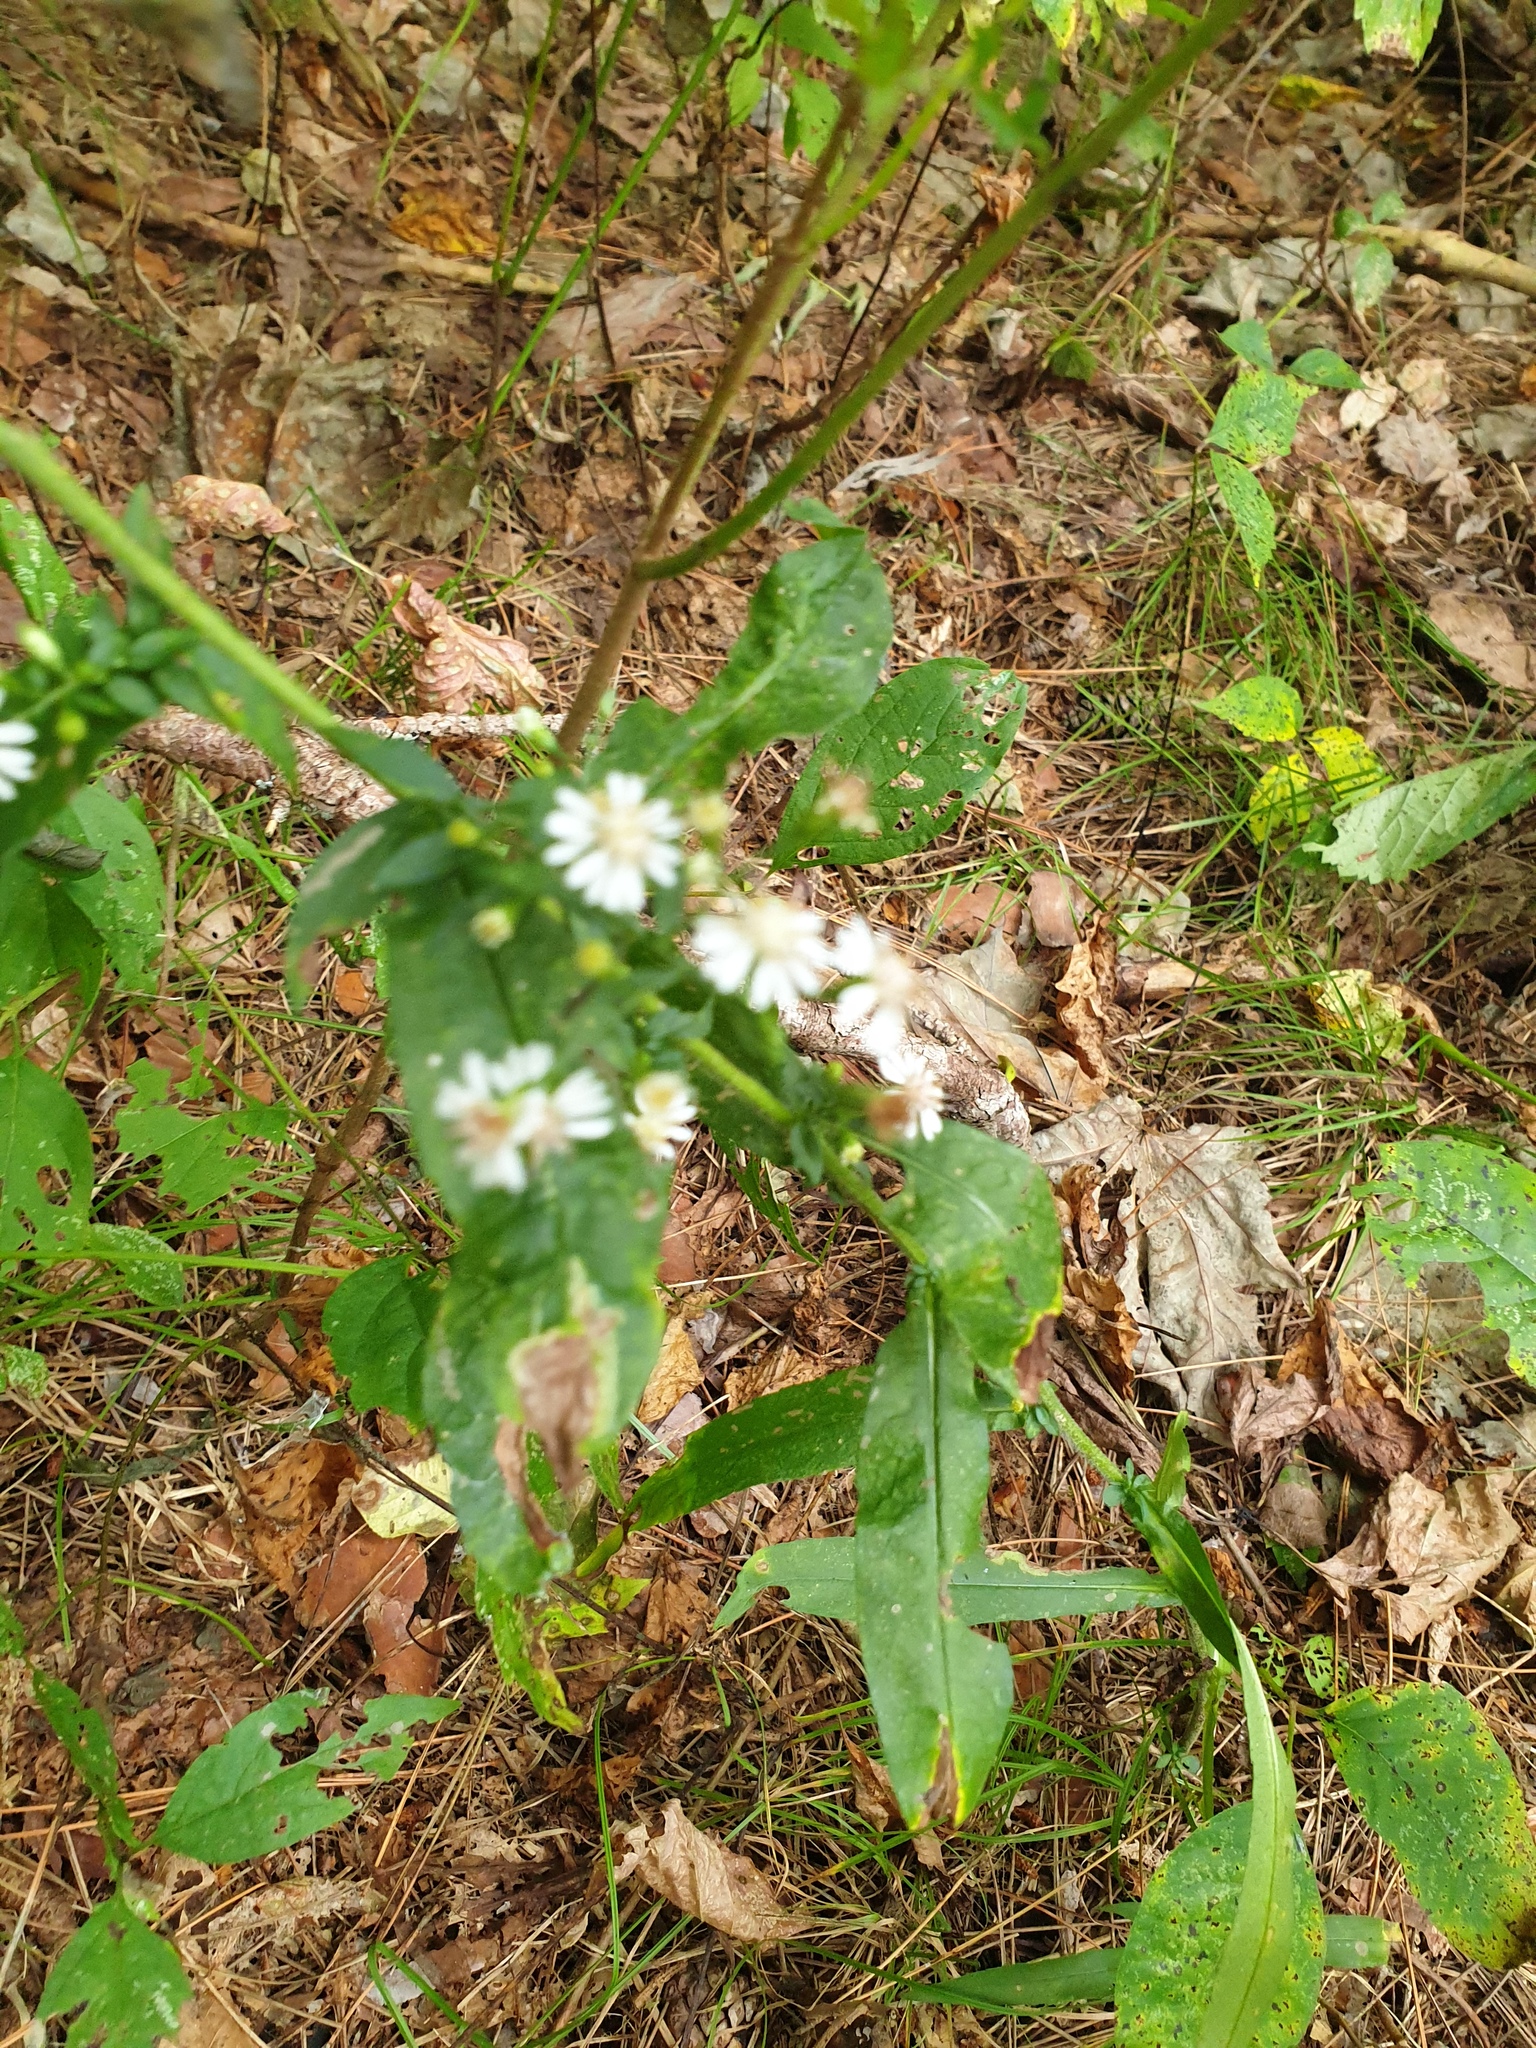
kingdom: Plantae
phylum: Tracheophyta
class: Magnoliopsida
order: Asterales
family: Asteraceae
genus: Symphyotrichum
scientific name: Symphyotrichum lateriflorum
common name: Calico aster
